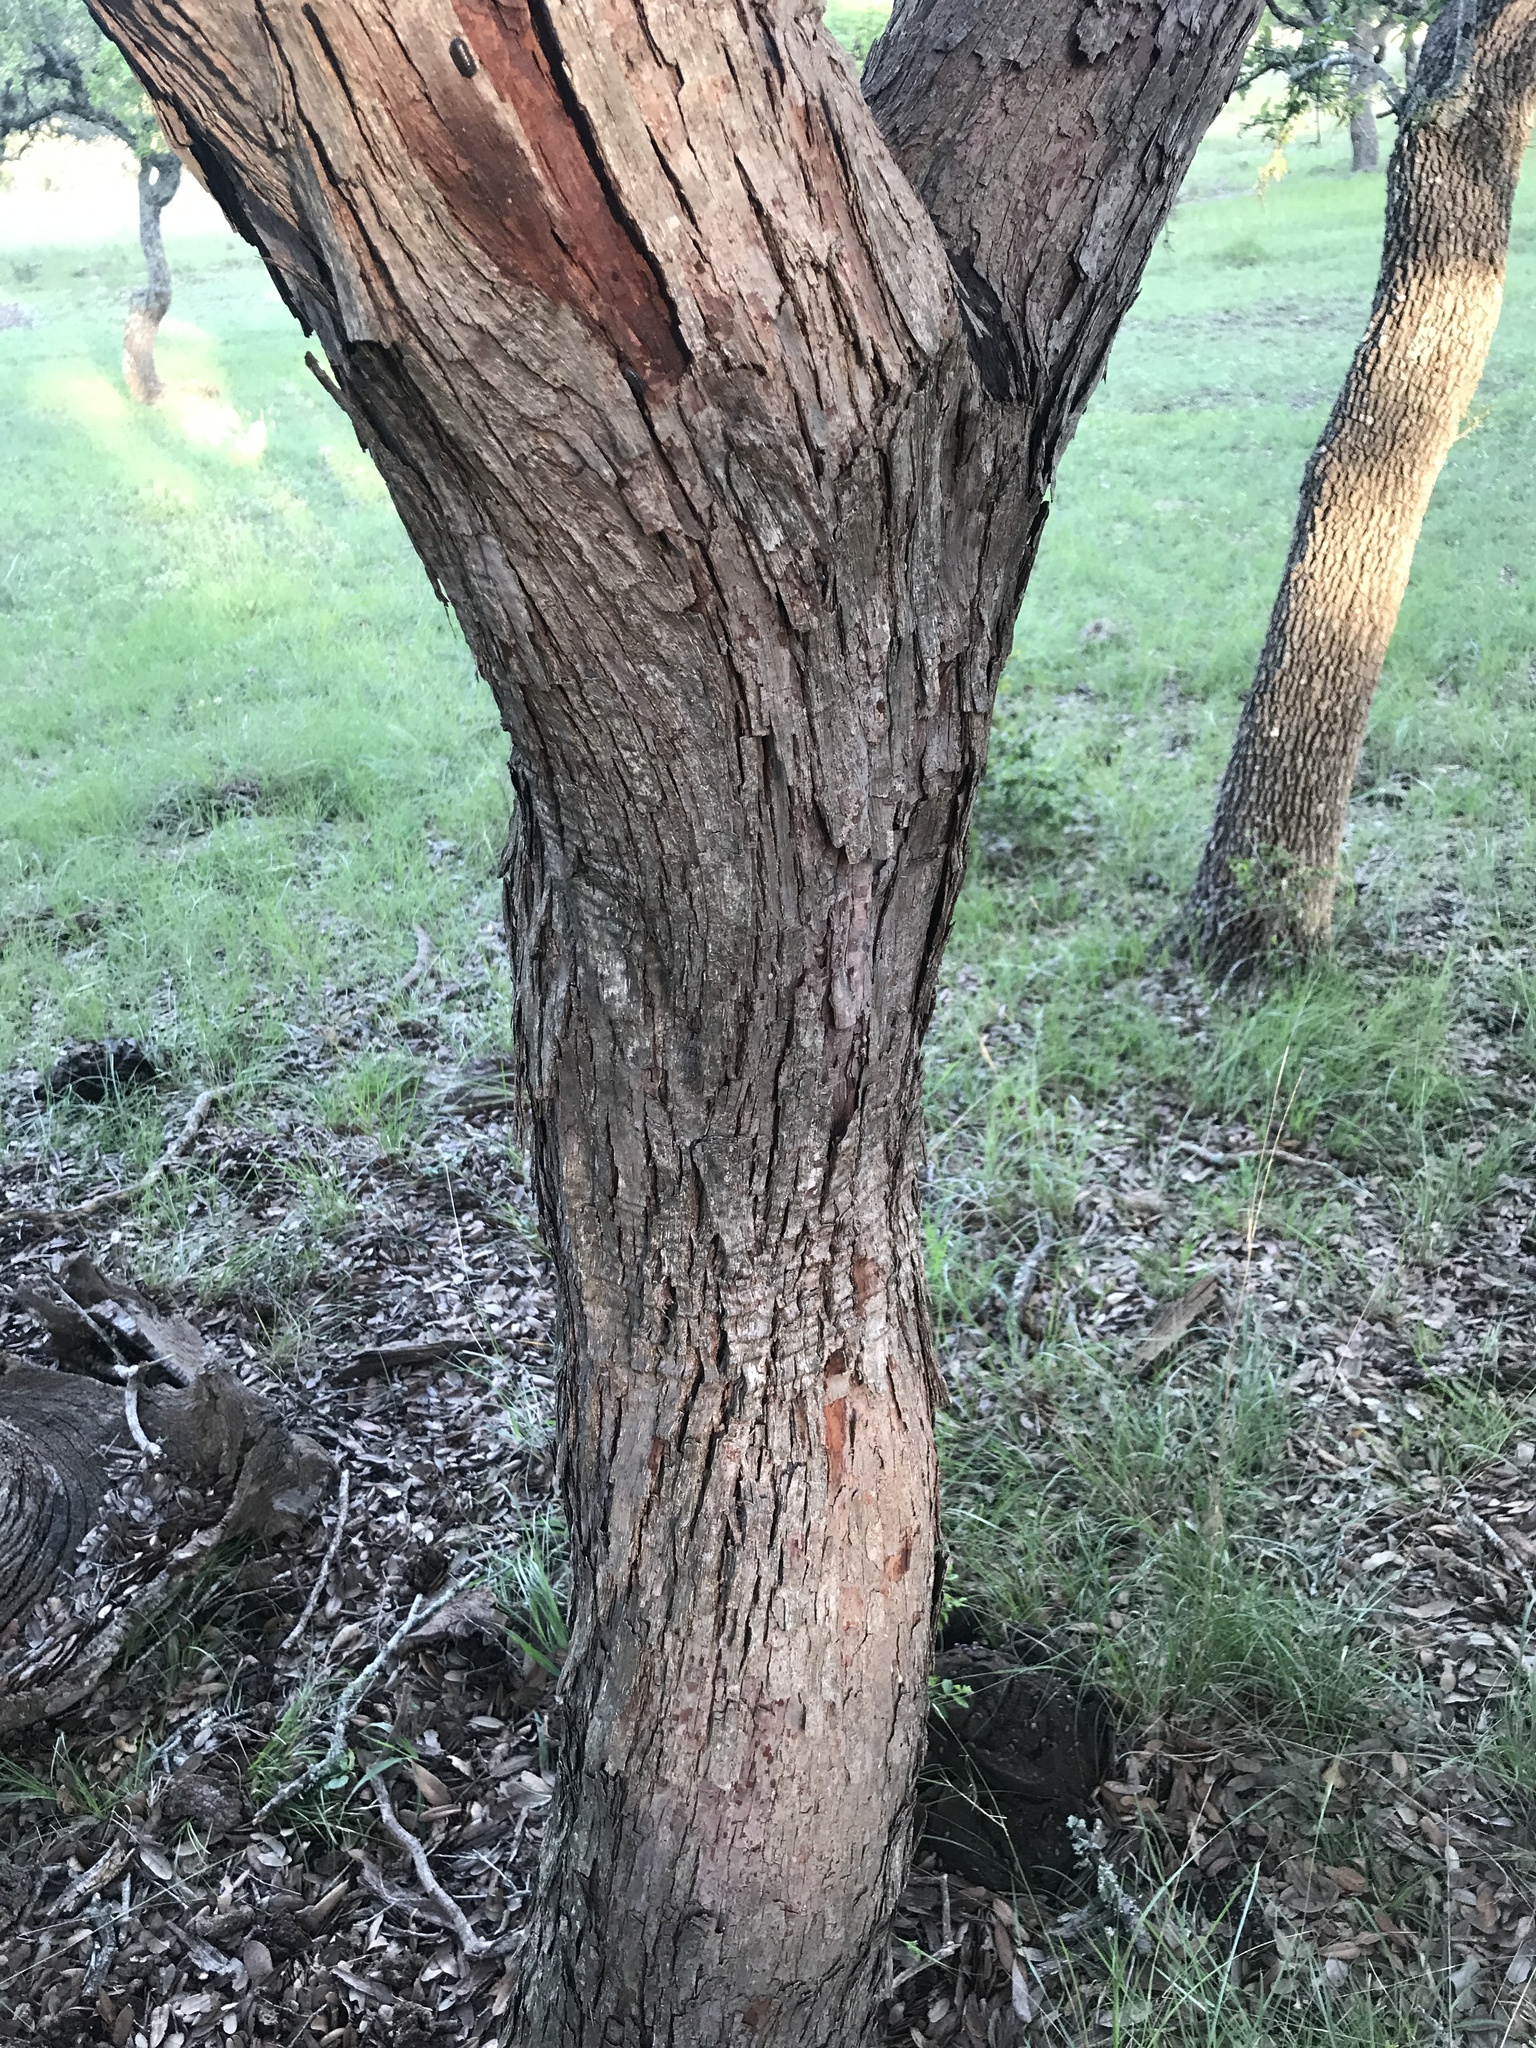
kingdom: Plantae
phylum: Tracheophyta
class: Magnoliopsida
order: Ericales
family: Sapotaceae
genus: Sideroxylon
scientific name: Sideroxylon lanuginosum
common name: Chittamwood
